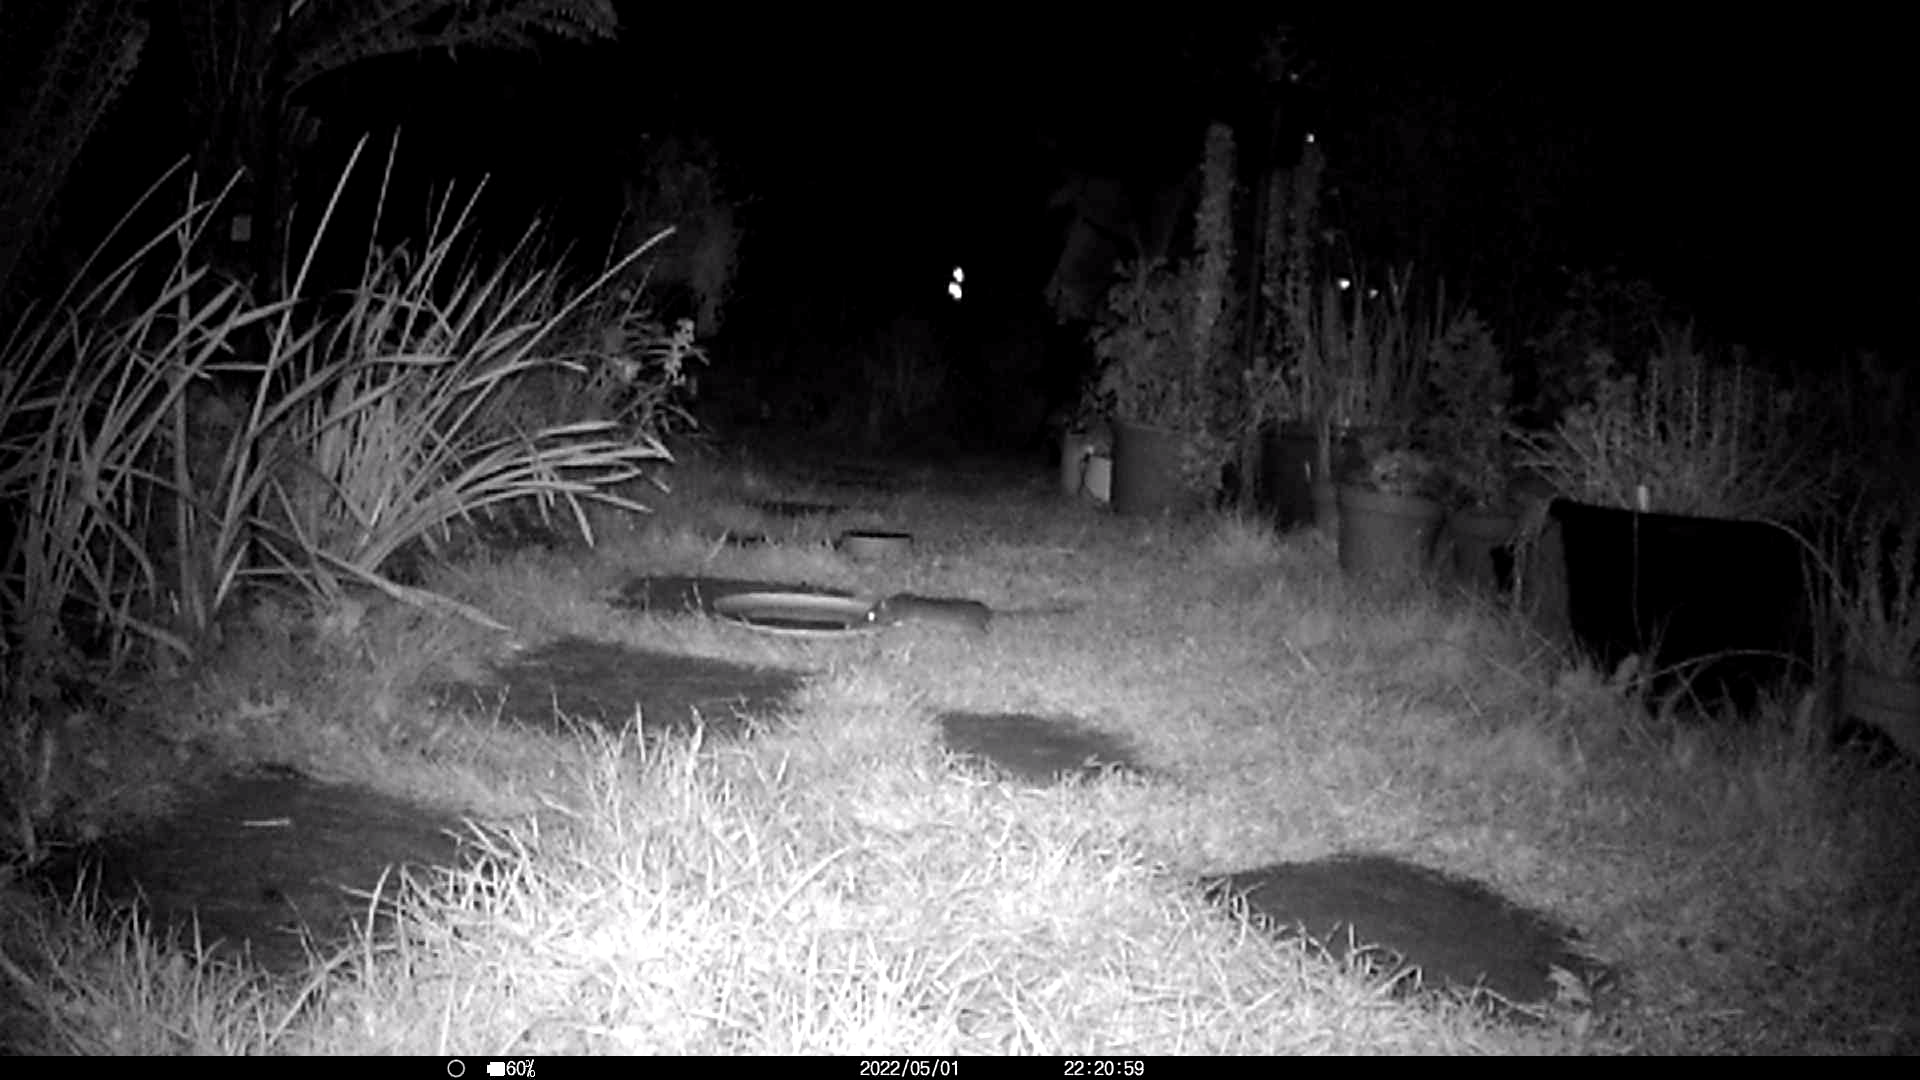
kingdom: Animalia
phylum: Chordata
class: Mammalia
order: Rodentia
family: Muridae
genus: Rattus
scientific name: Rattus norvegicus
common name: Brown rat
